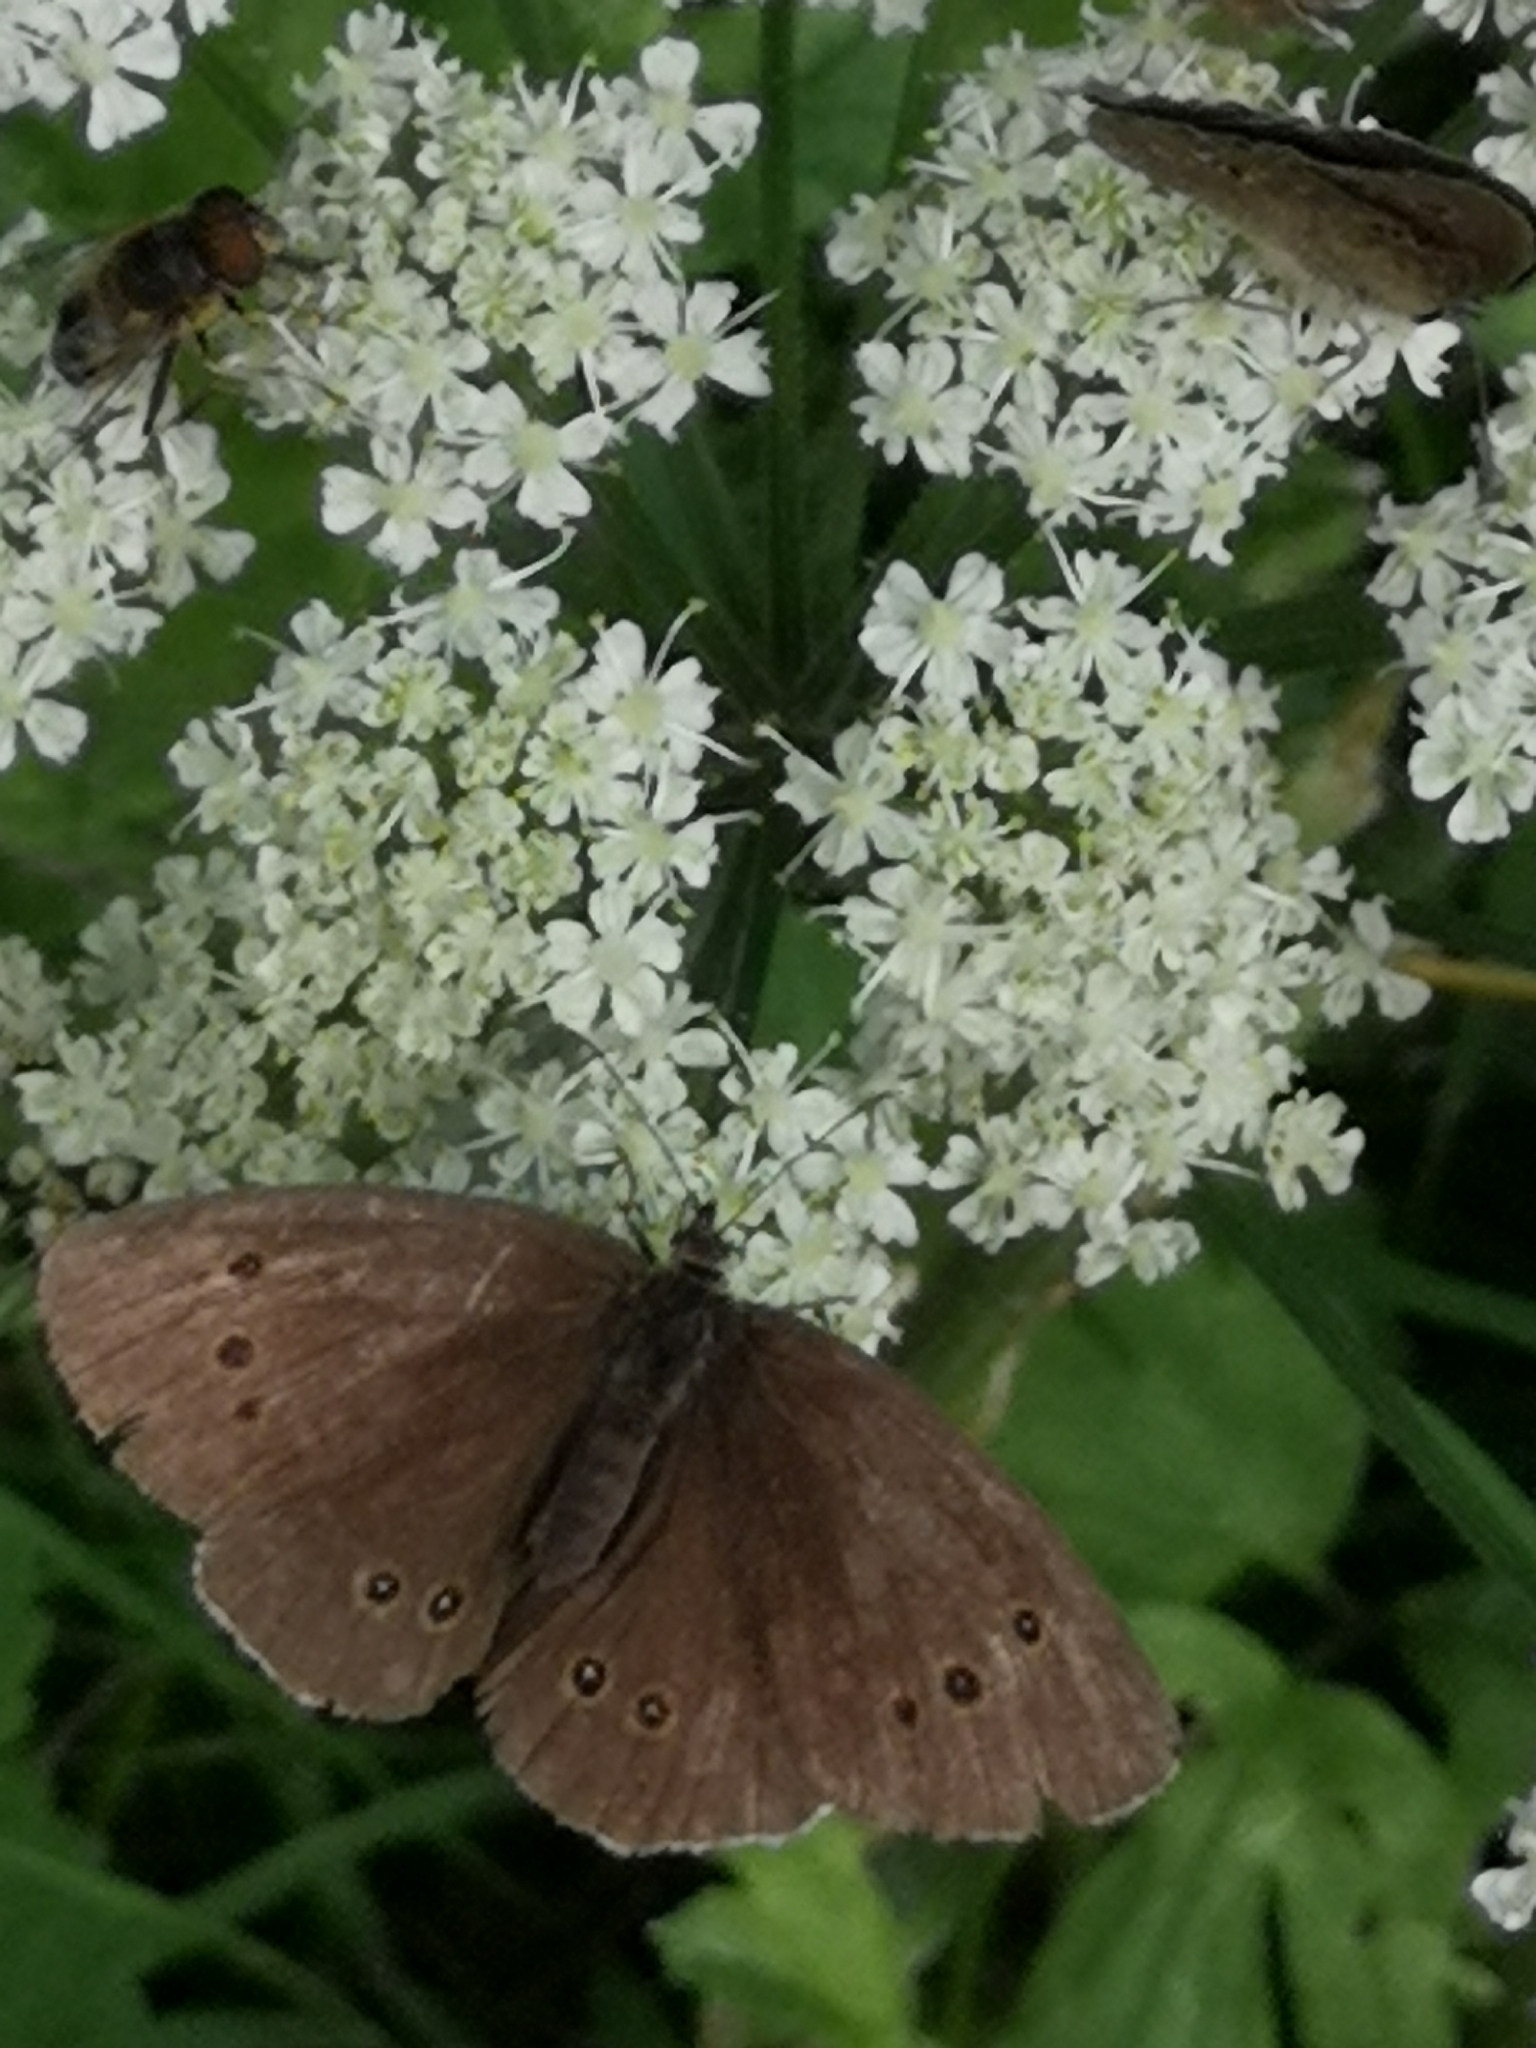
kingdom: Animalia
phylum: Arthropoda
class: Insecta
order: Lepidoptera
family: Nymphalidae
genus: Aphantopus
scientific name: Aphantopus hyperantus
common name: Ringlet
